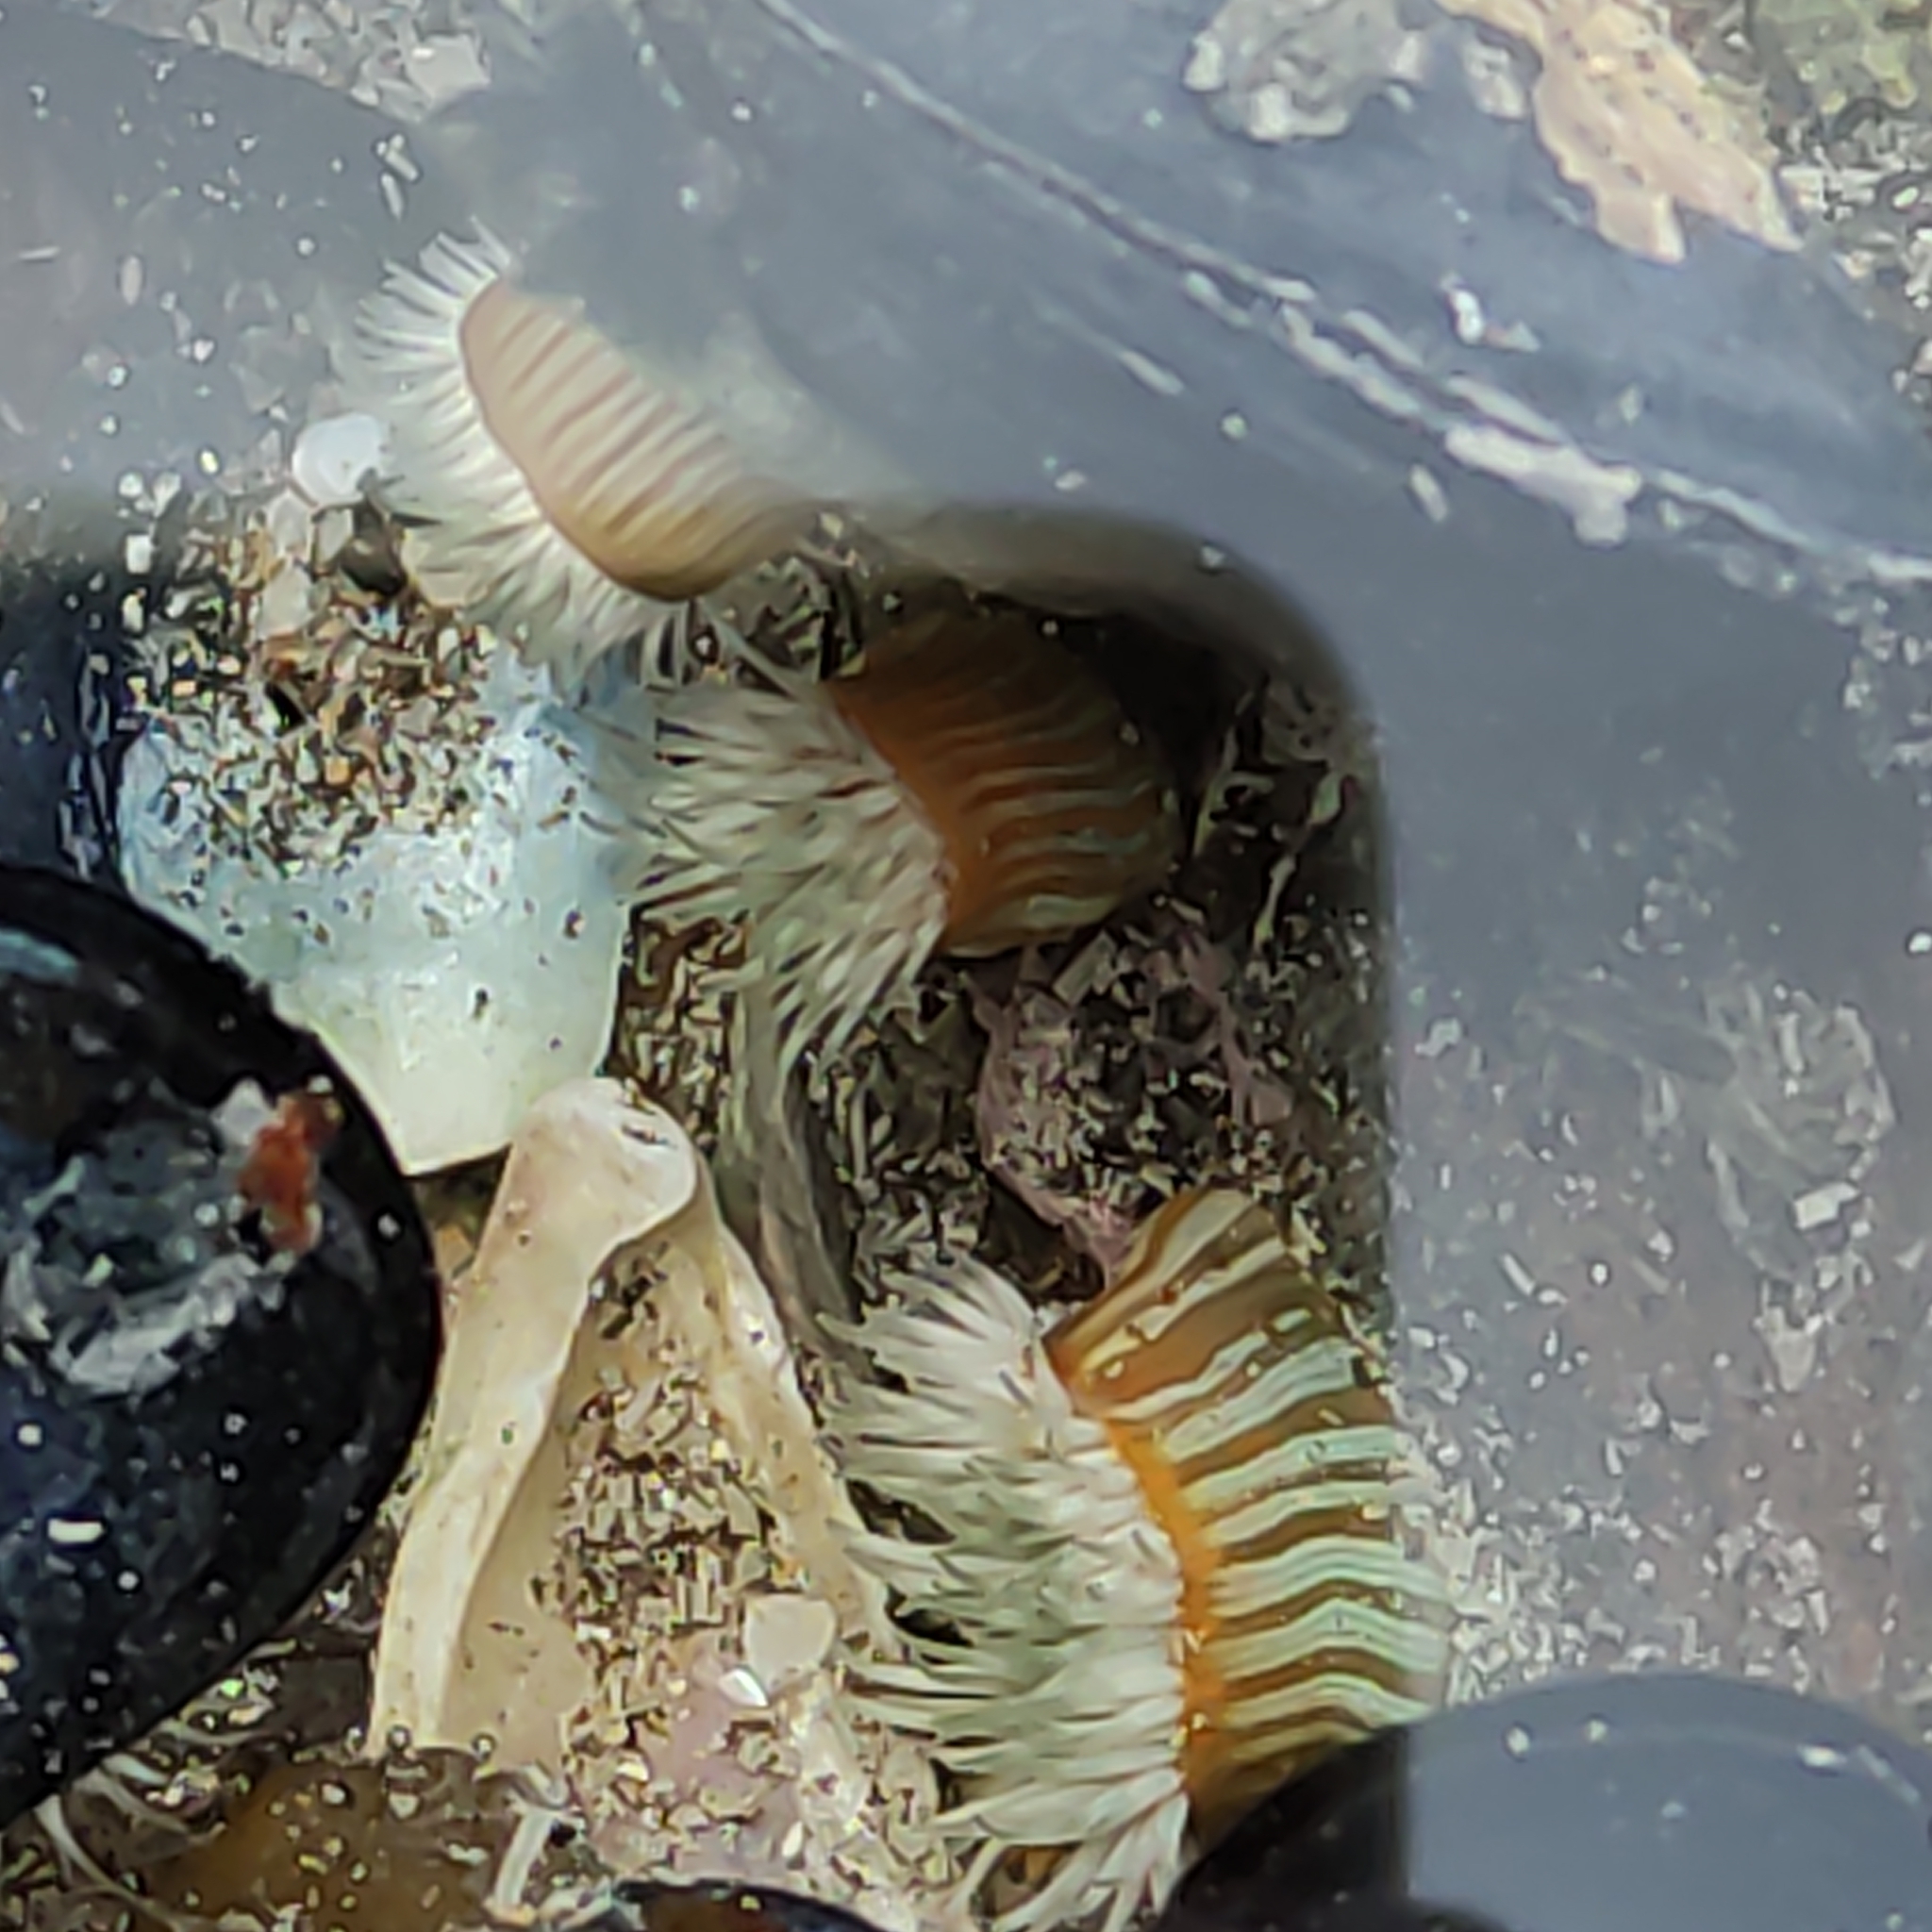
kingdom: Animalia
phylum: Cnidaria
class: Anthozoa
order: Actiniaria
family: Sagartiidae
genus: Anthothoe
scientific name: Anthothoe albocincta
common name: Orange striped anemone
